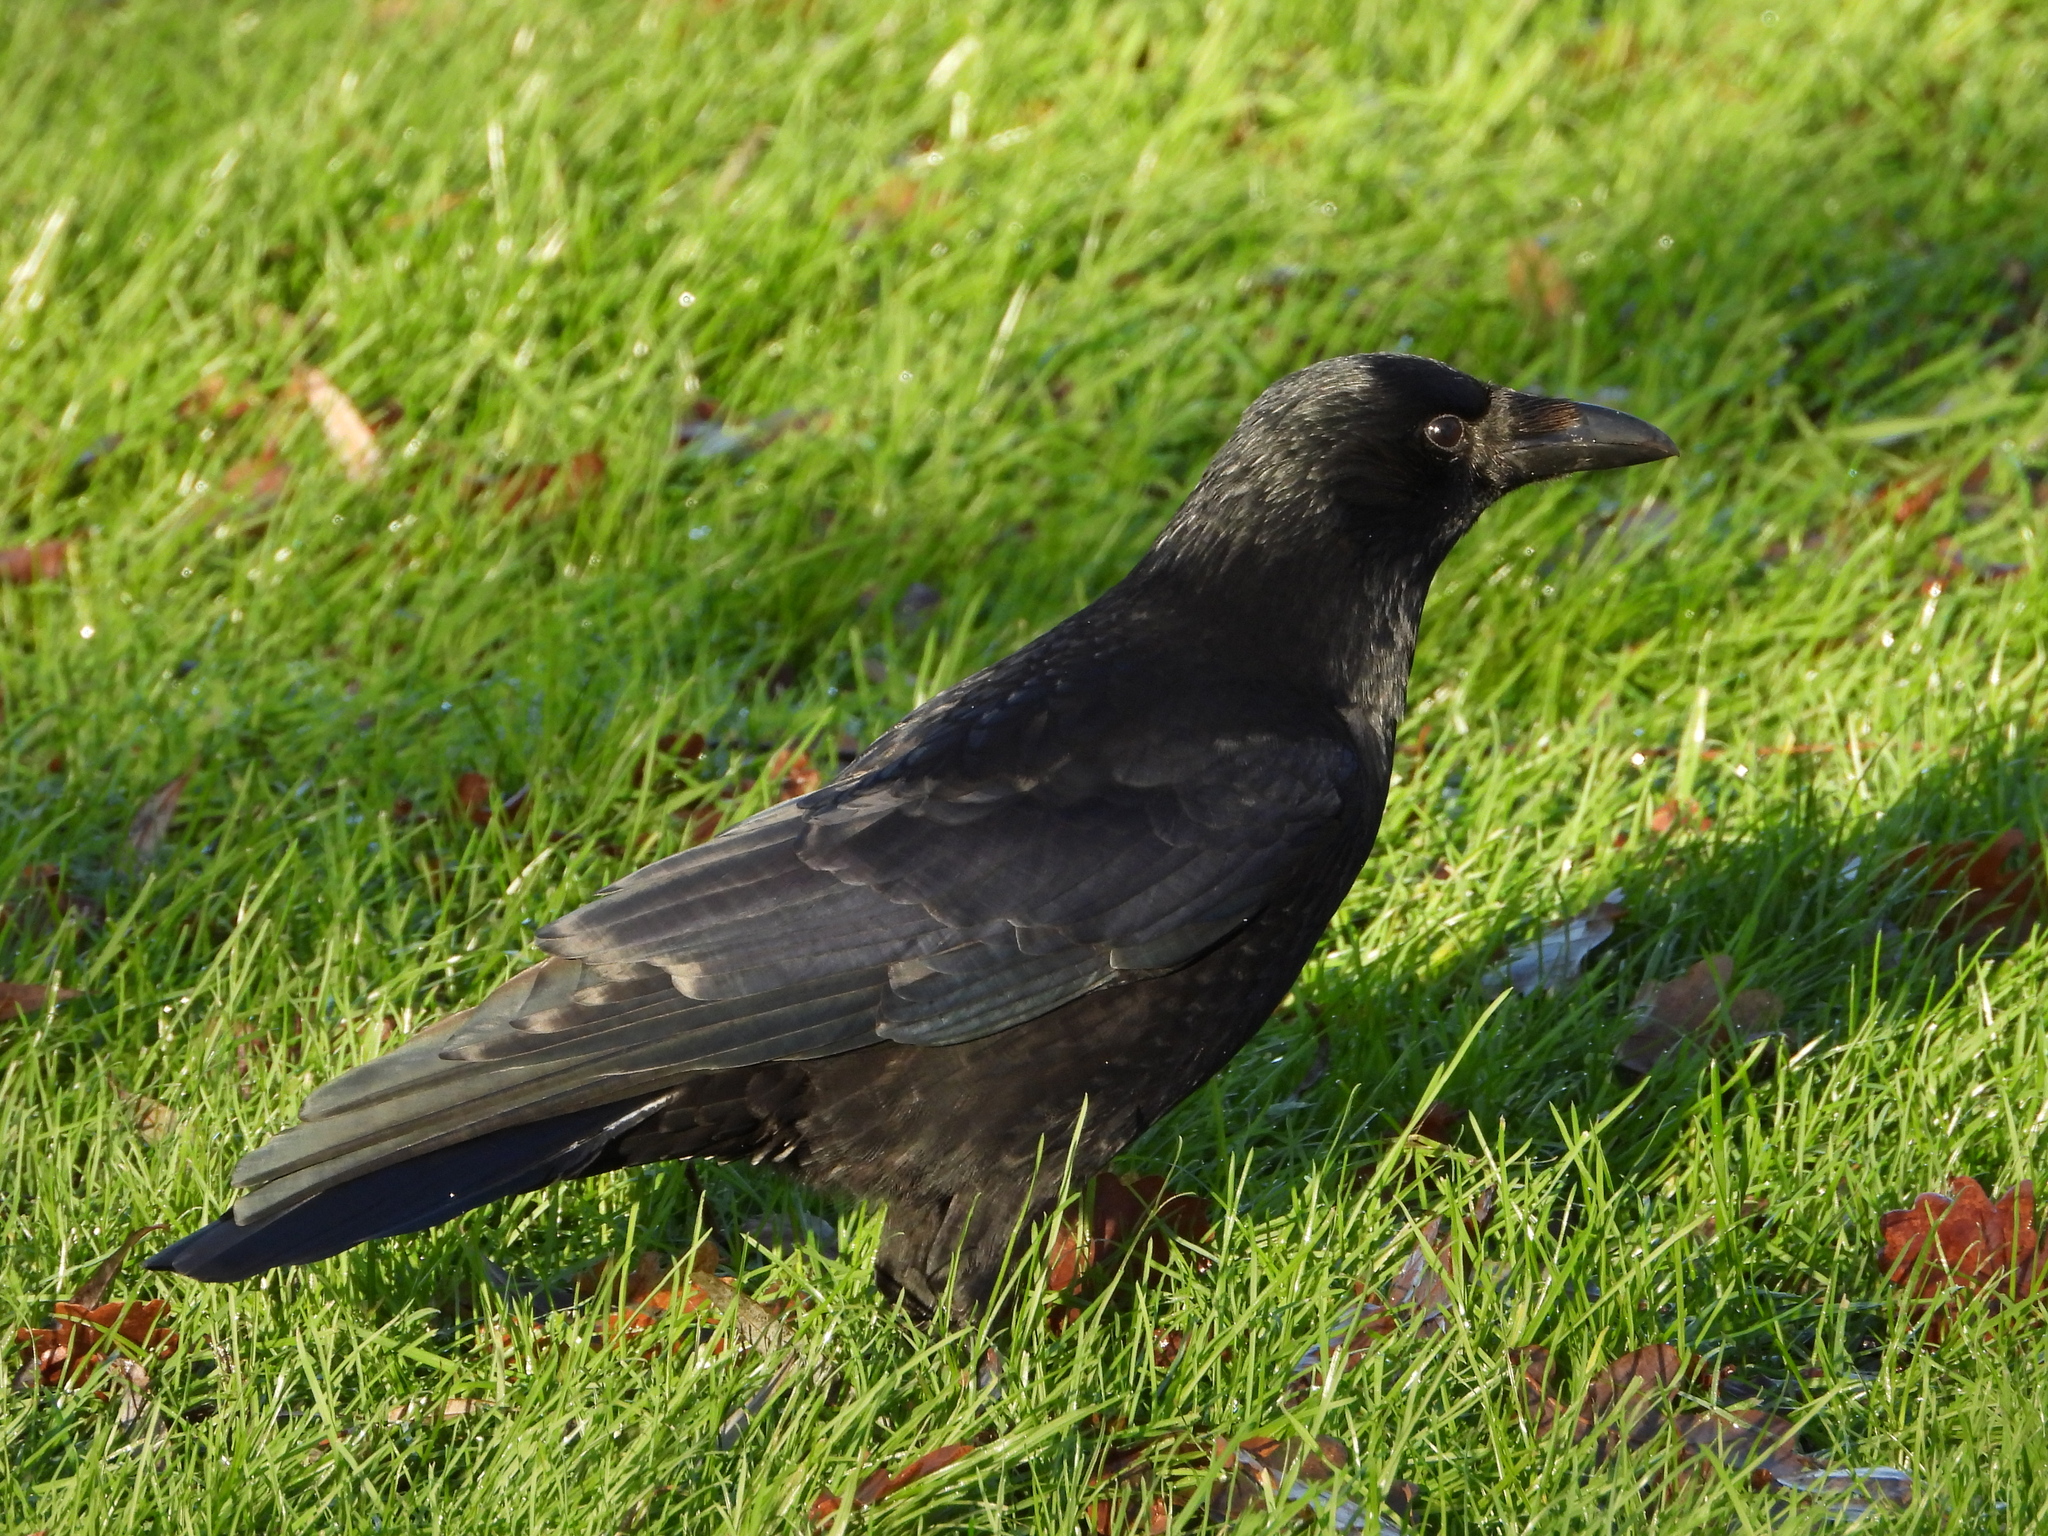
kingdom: Animalia
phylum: Chordata
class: Aves
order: Passeriformes
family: Corvidae
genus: Corvus
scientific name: Corvus corone
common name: Carrion crow
